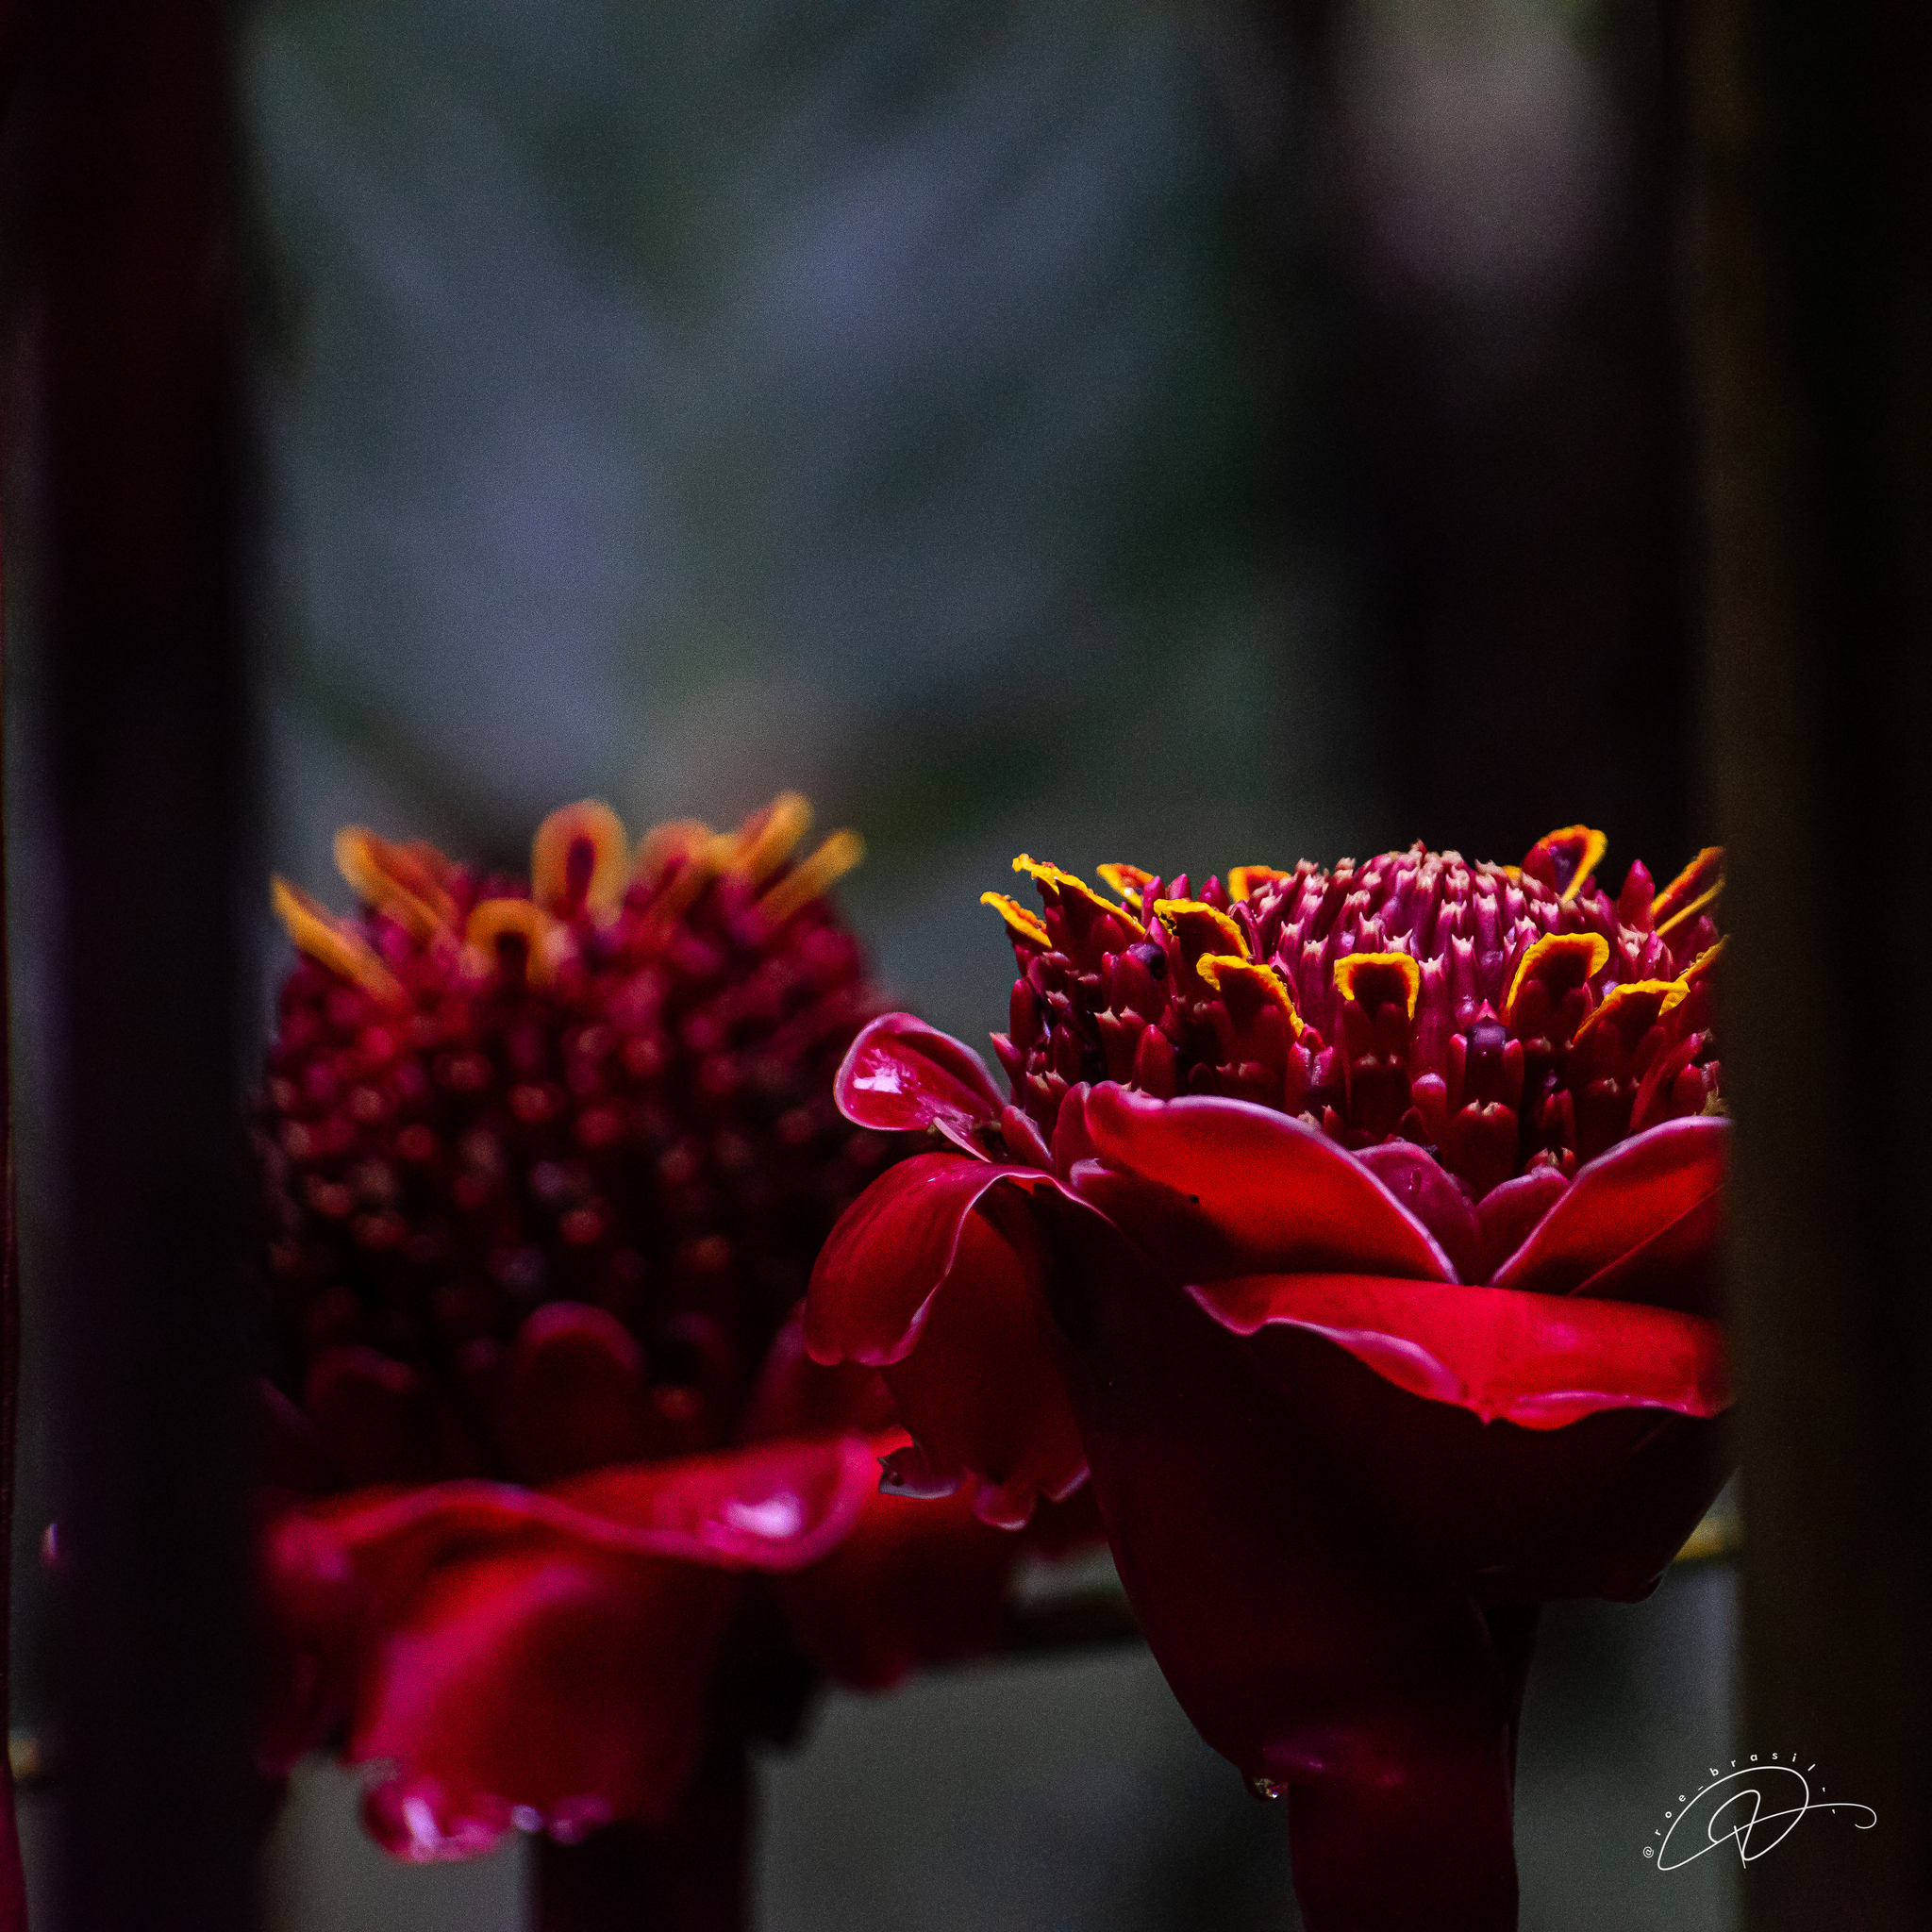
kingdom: Plantae
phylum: Tracheophyta
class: Liliopsida
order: Zingiberales
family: Zingiberaceae
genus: Etlingera
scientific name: Etlingera elatior
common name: Philippine waxflower
